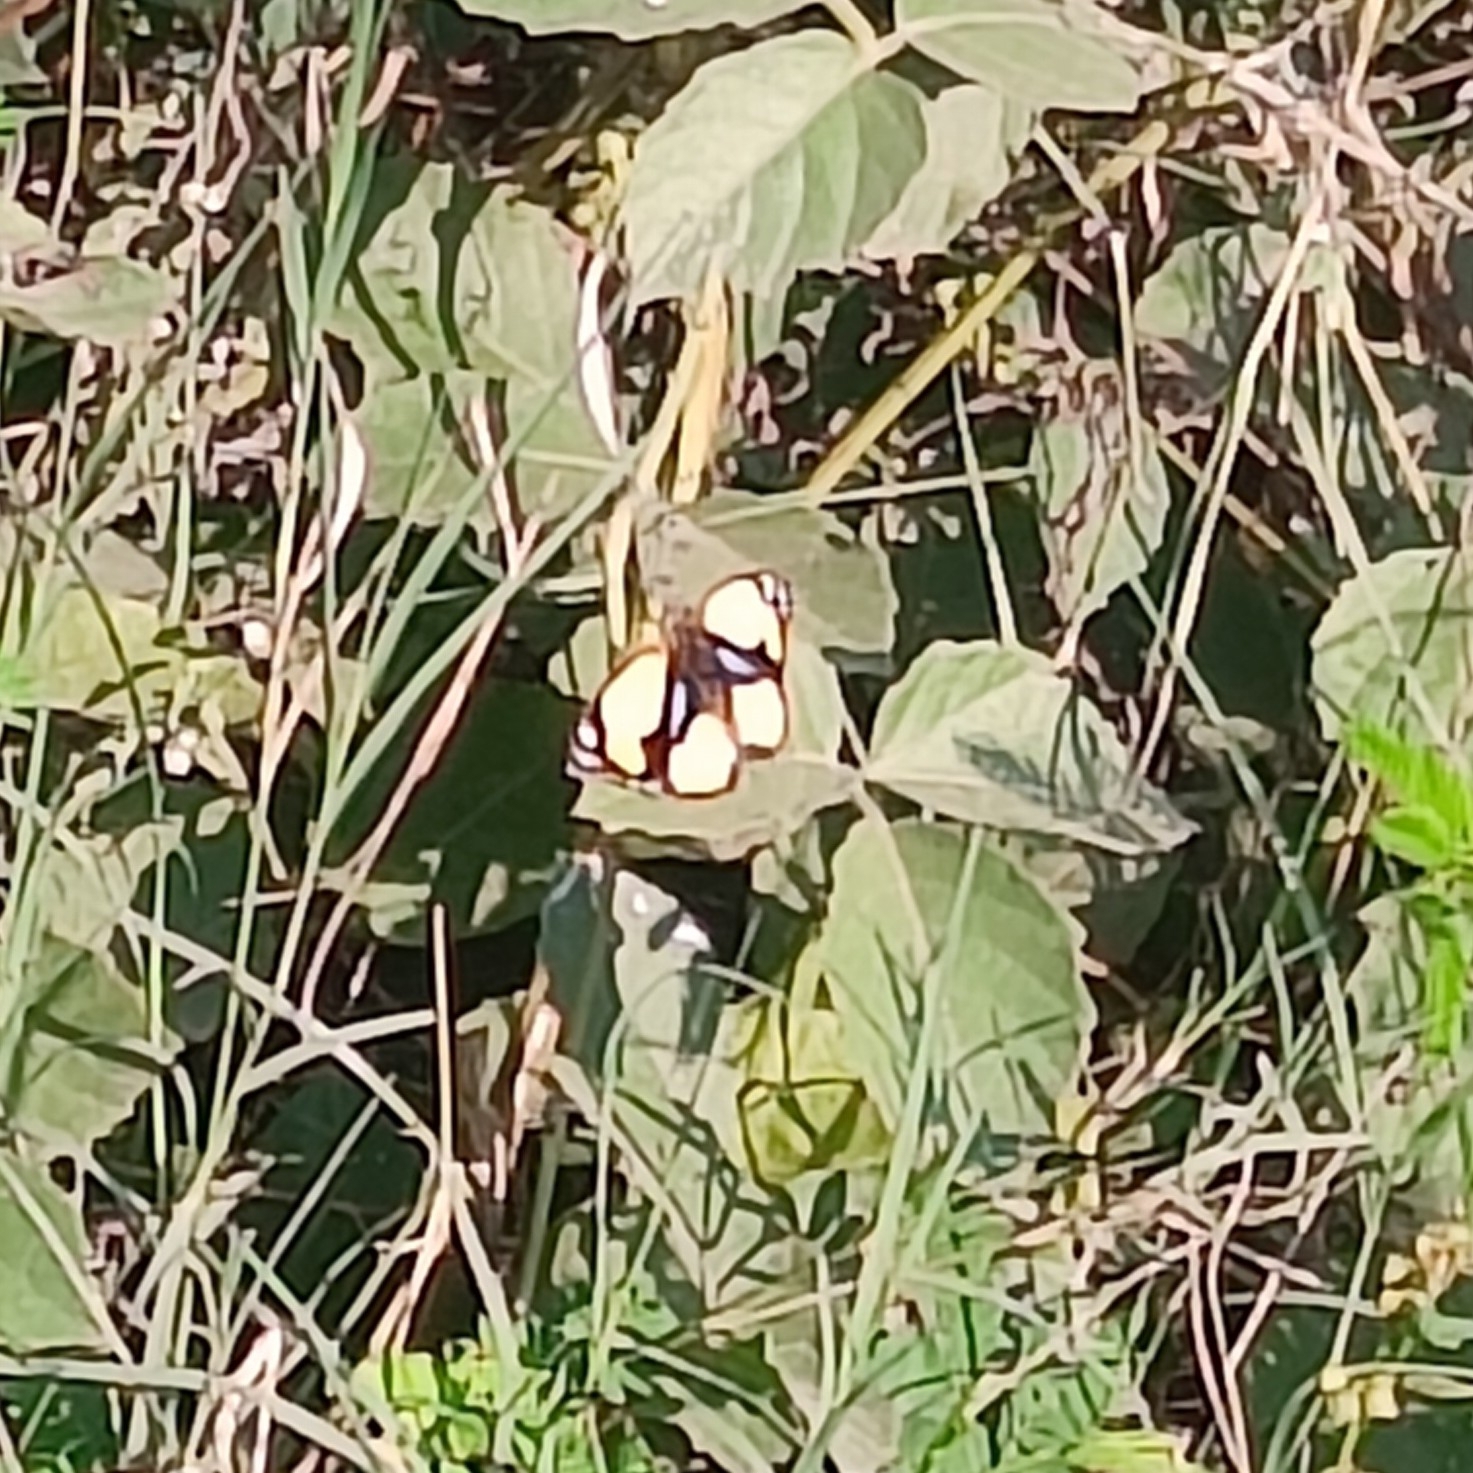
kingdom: Animalia
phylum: Arthropoda
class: Insecta
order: Lepidoptera
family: Nymphalidae
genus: Junonia
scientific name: Junonia hierta
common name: Yellow pansy
